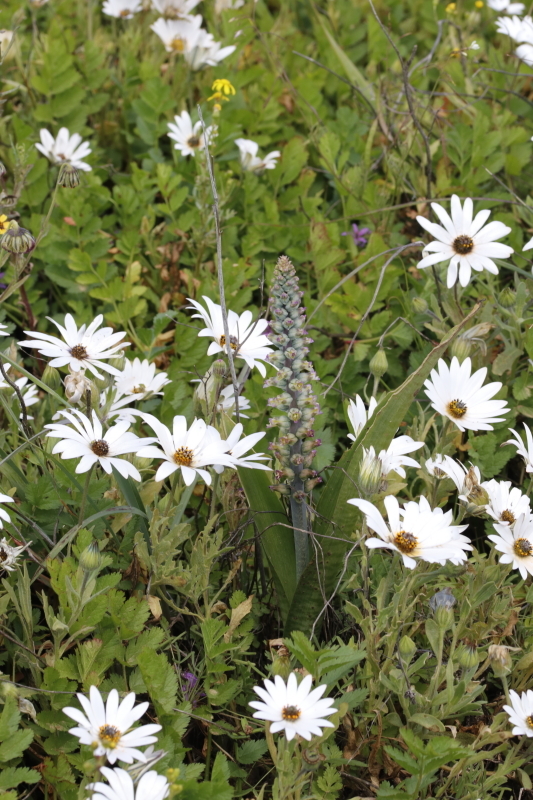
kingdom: Plantae
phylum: Tracheophyta
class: Liliopsida
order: Asparagales
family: Asparagaceae
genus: Lachenalia
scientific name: Lachenalia obscura
